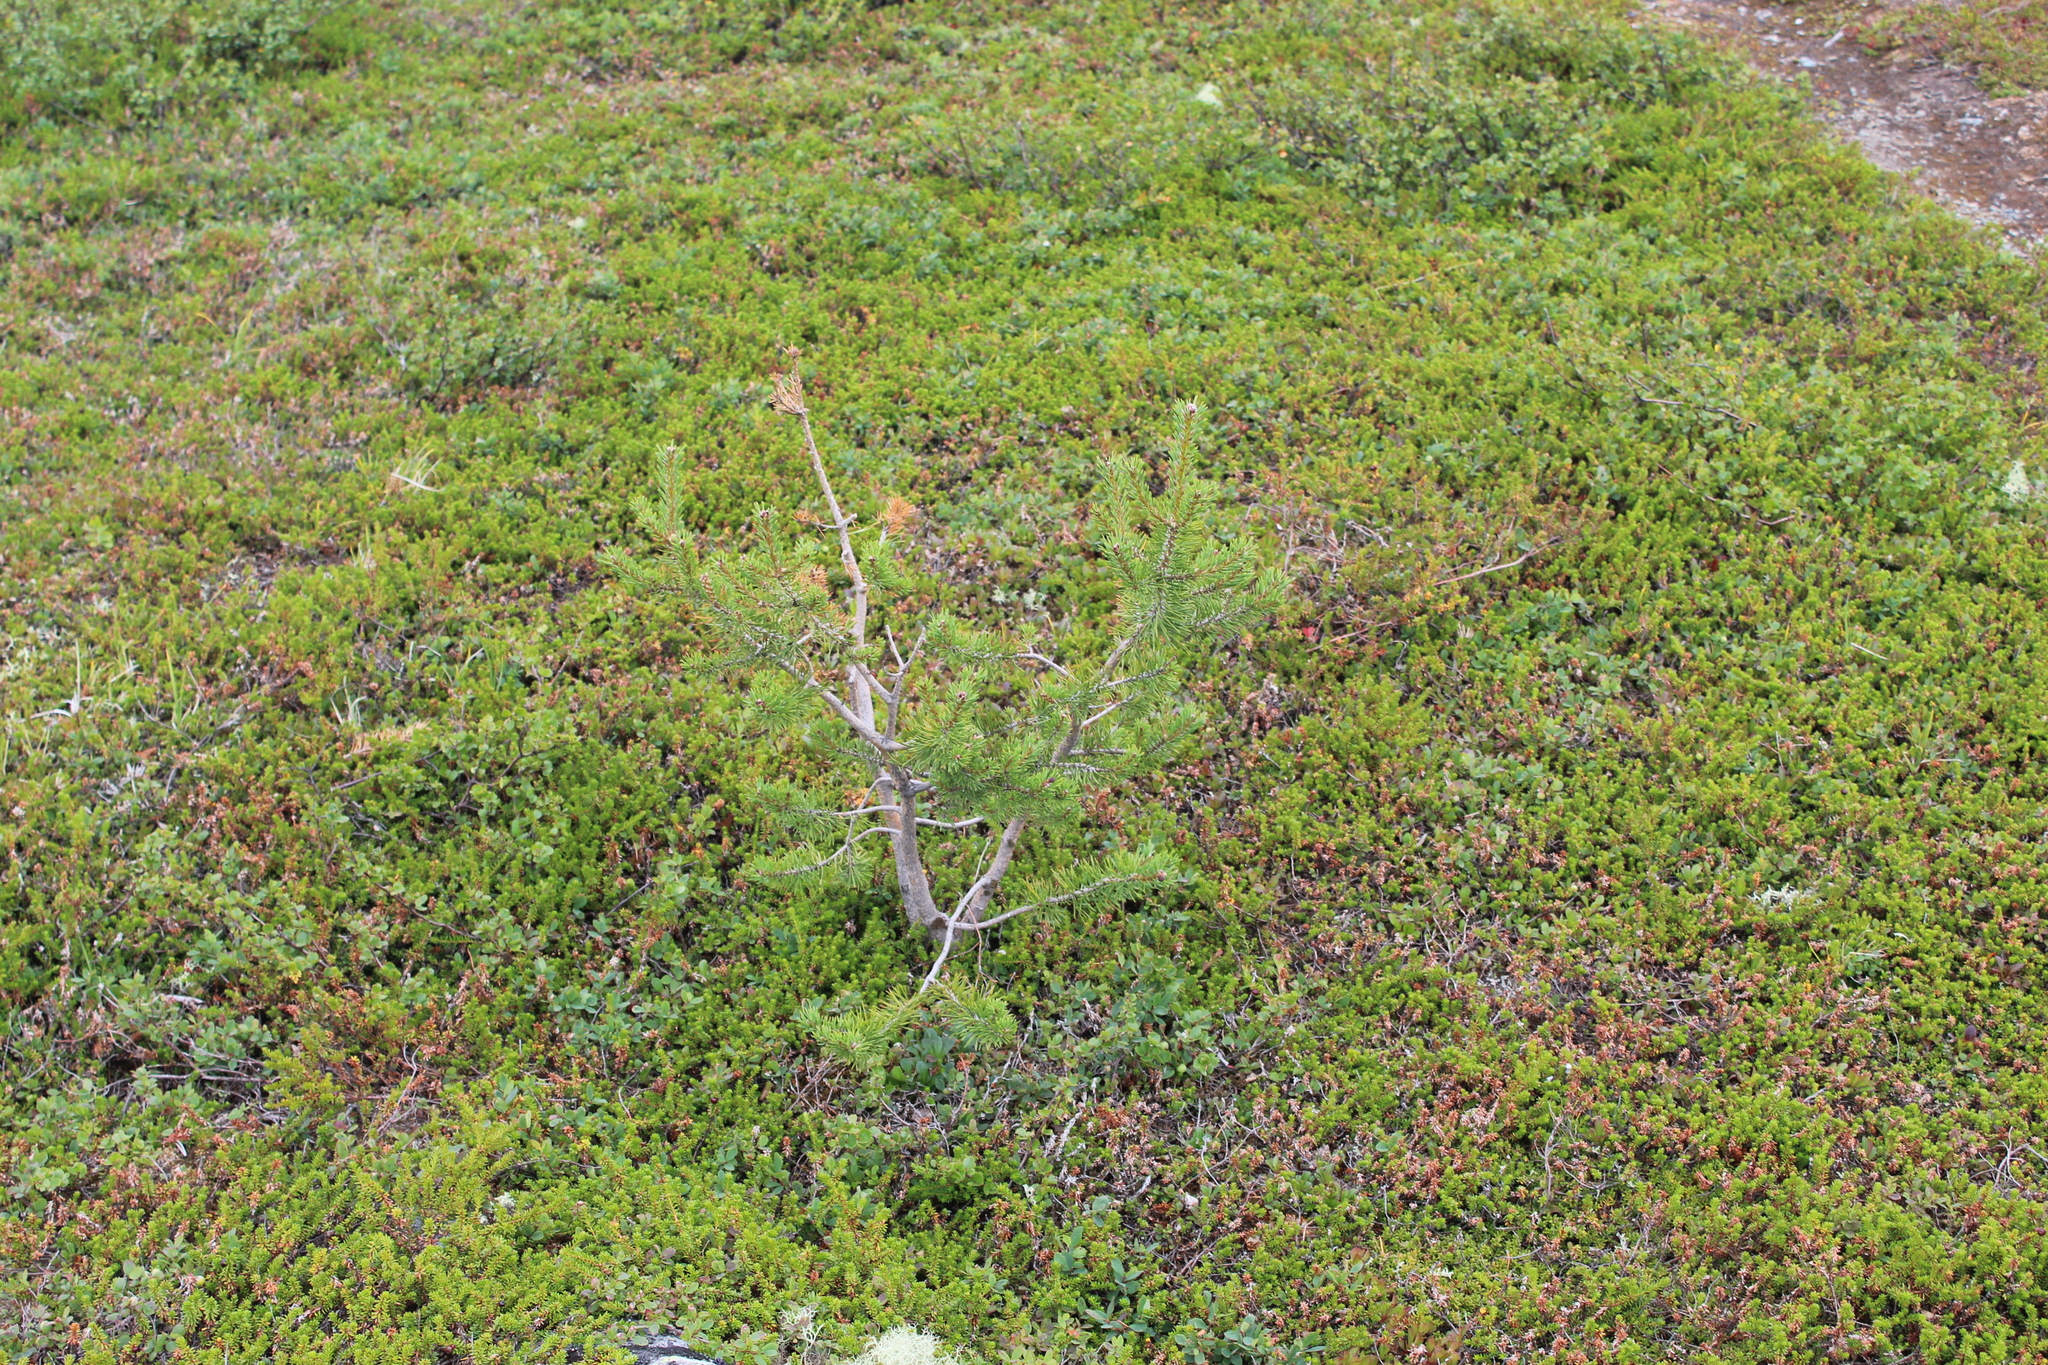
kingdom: Plantae
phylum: Tracheophyta
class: Pinopsida
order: Pinales
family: Pinaceae
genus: Pinus
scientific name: Pinus sylvestris
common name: Scots pine
